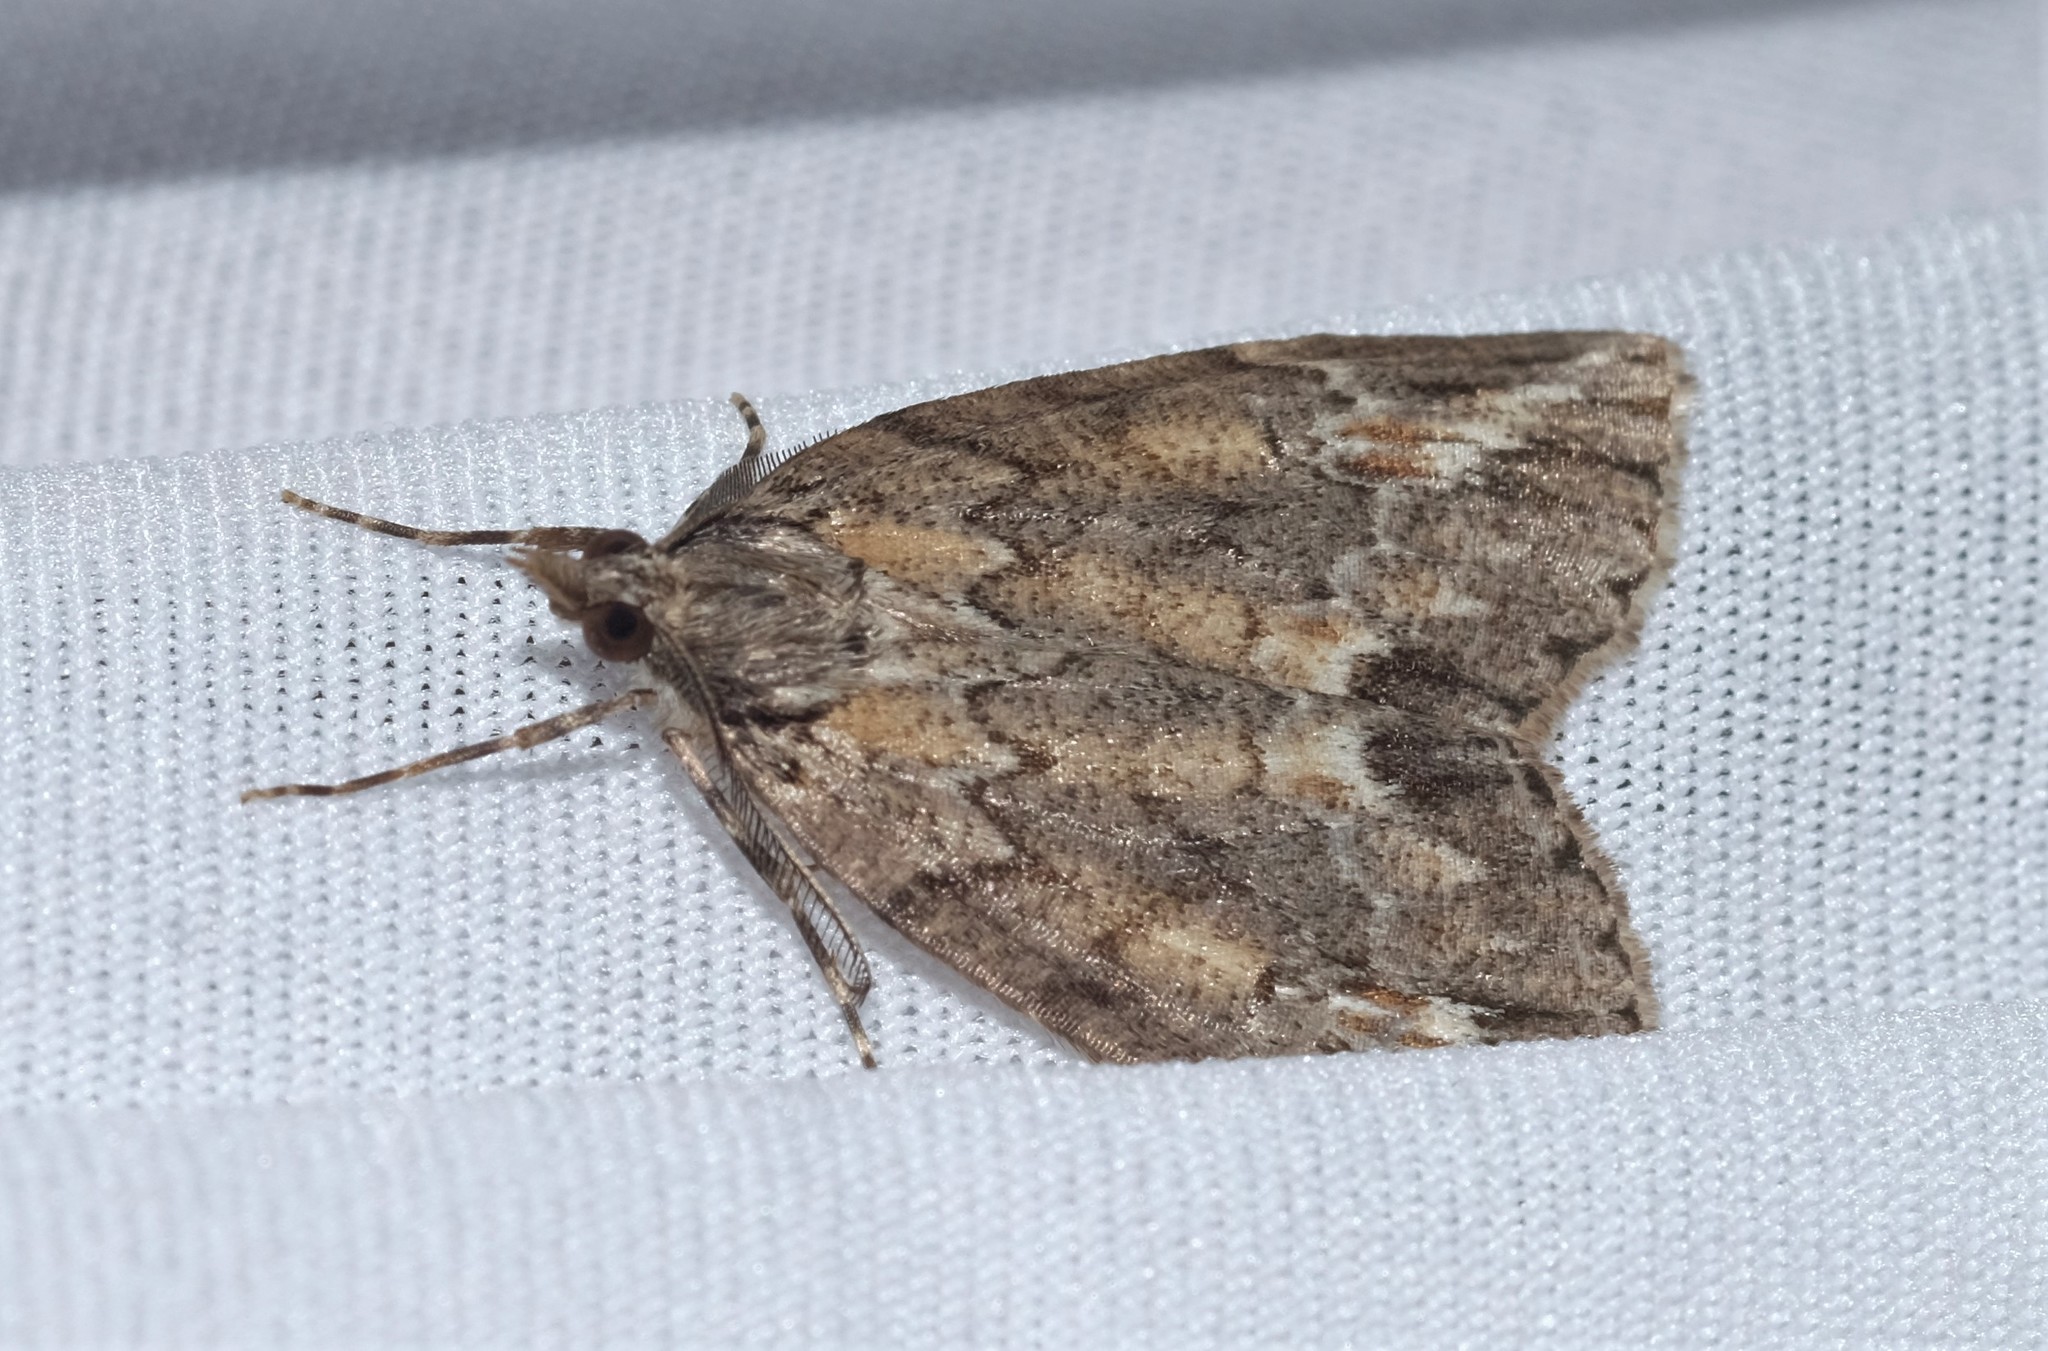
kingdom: Animalia
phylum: Arthropoda
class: Insecta
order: Lepidoptera
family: Geometridae
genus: Mictodoca
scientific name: Mictodoca toxeuta
